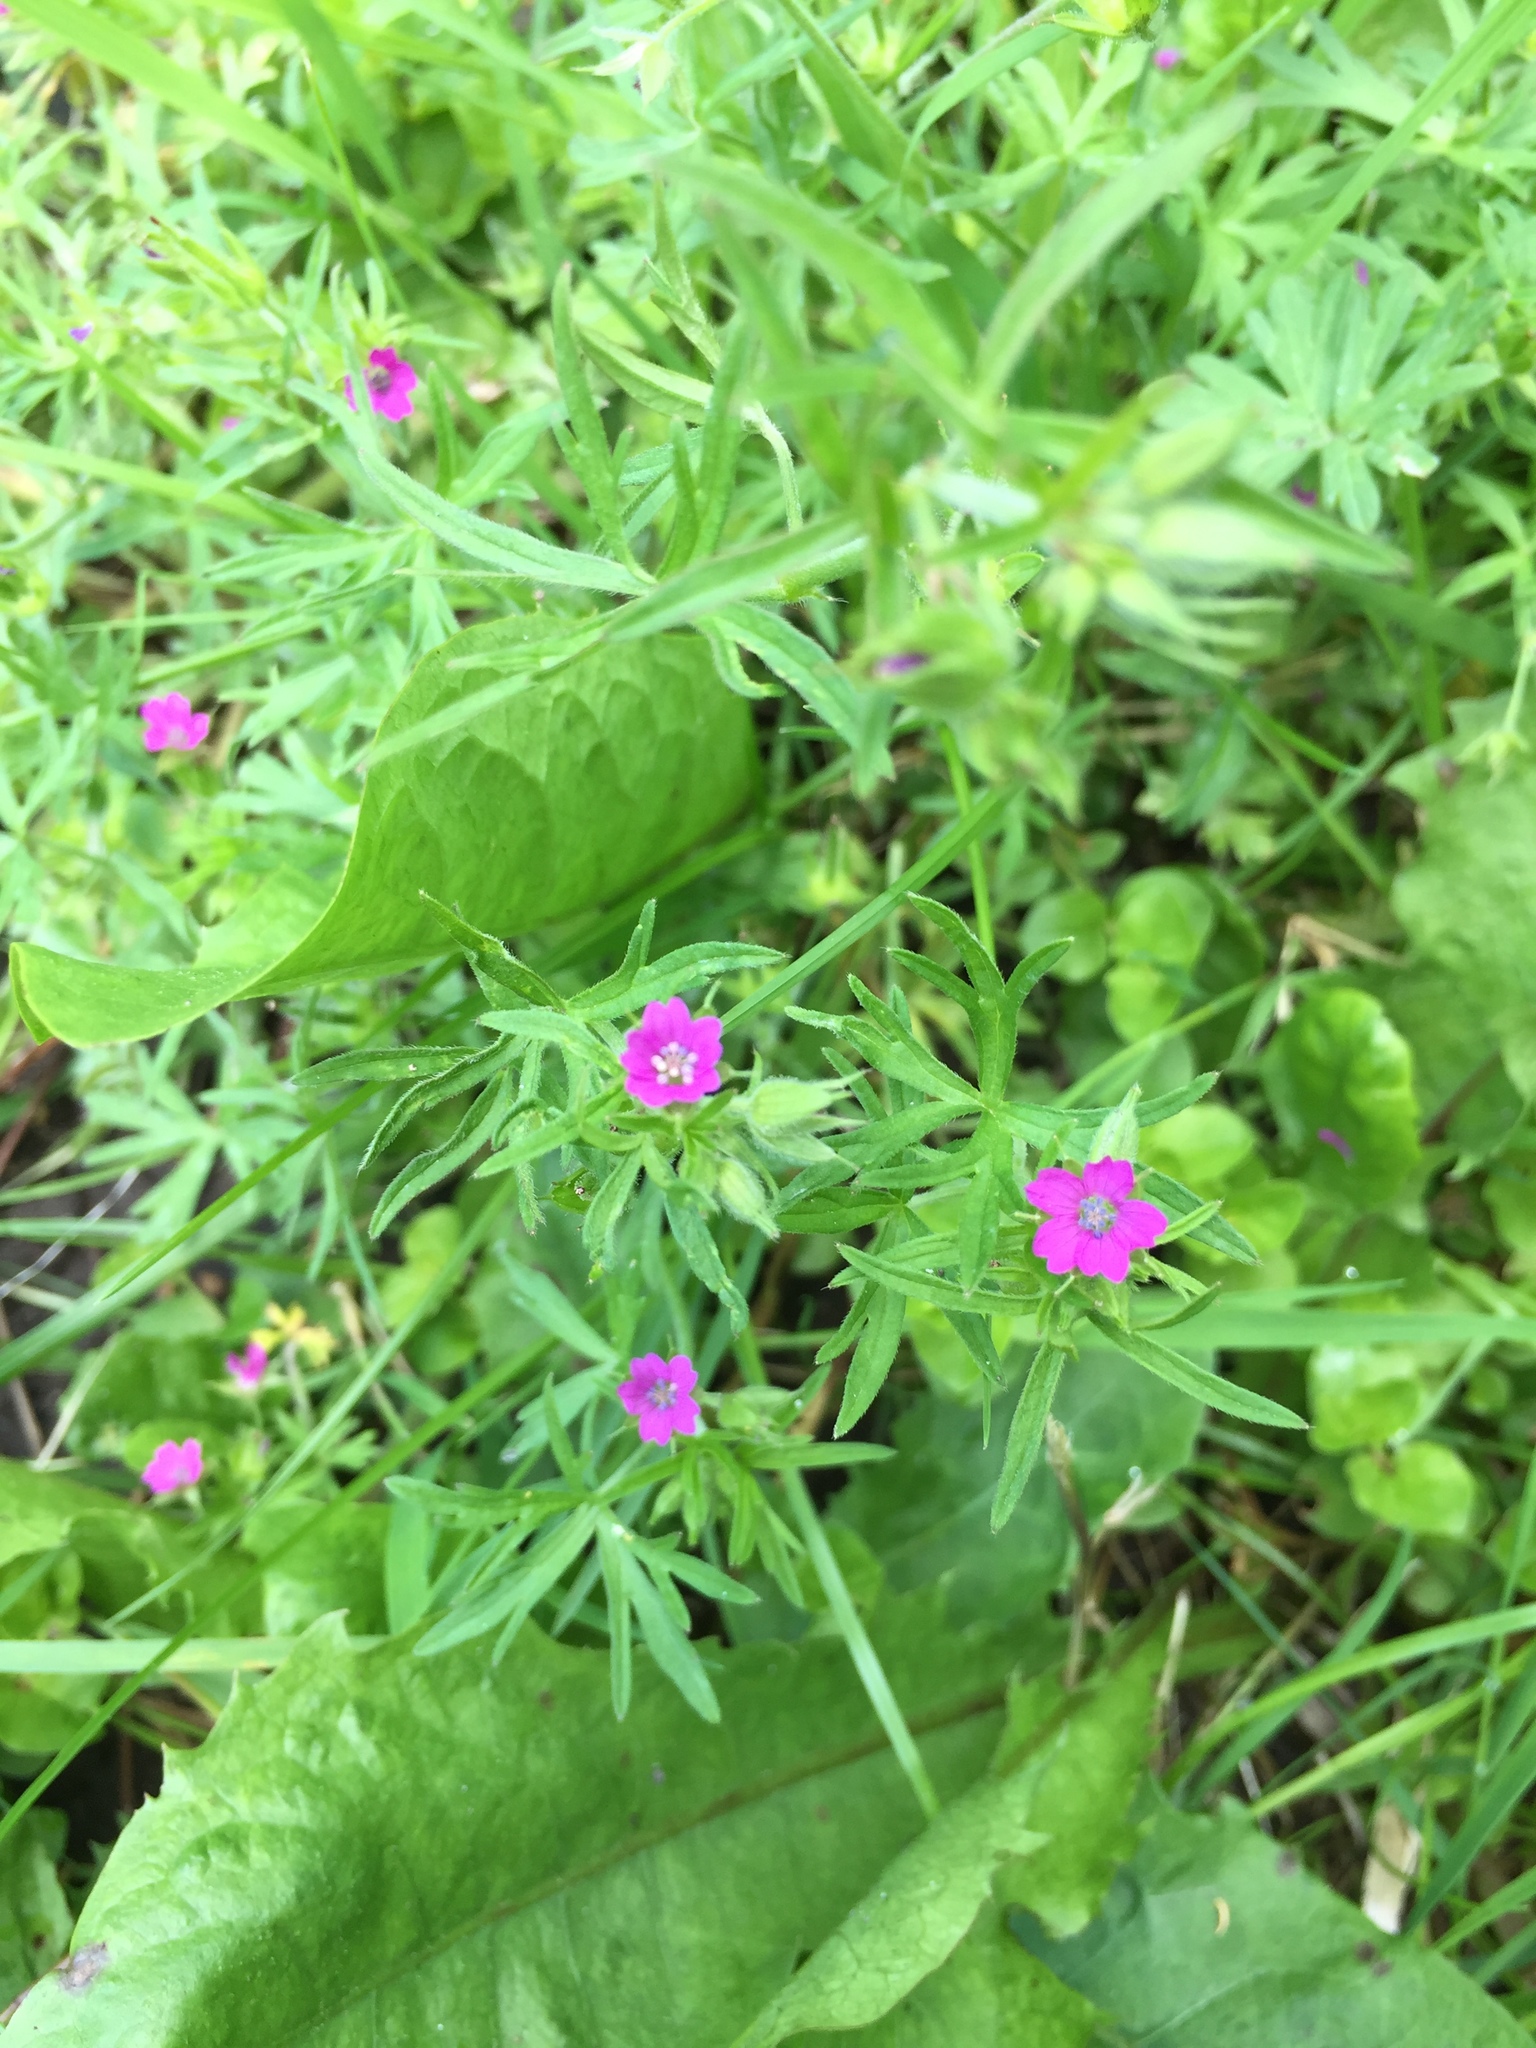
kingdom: Plantae
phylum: Tracheophyta
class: Magnoliopsida
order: Geraniales
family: Geraniaceae
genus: Geranium
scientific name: Geranium dissectum
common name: Cut-leaved crane's-bill
